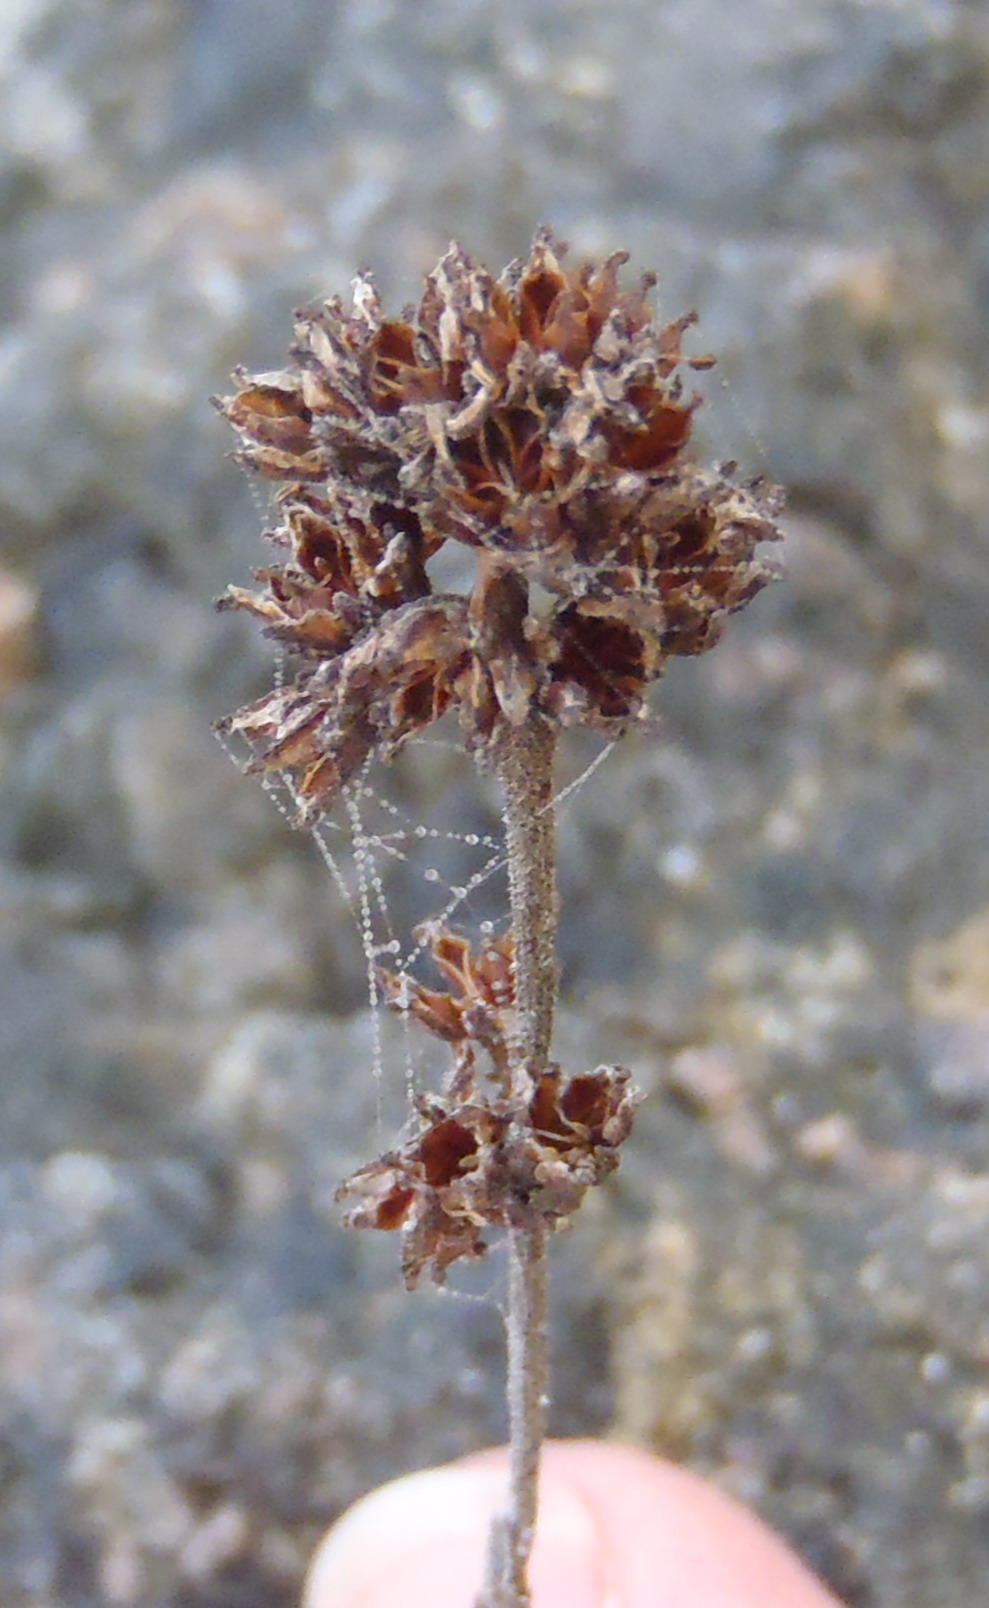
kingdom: Plantae
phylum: Tracheophyta
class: Magnoliopsida
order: Saxifragales
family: Crassulaceae
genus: Crassula
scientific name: Crassula nudicaulis
